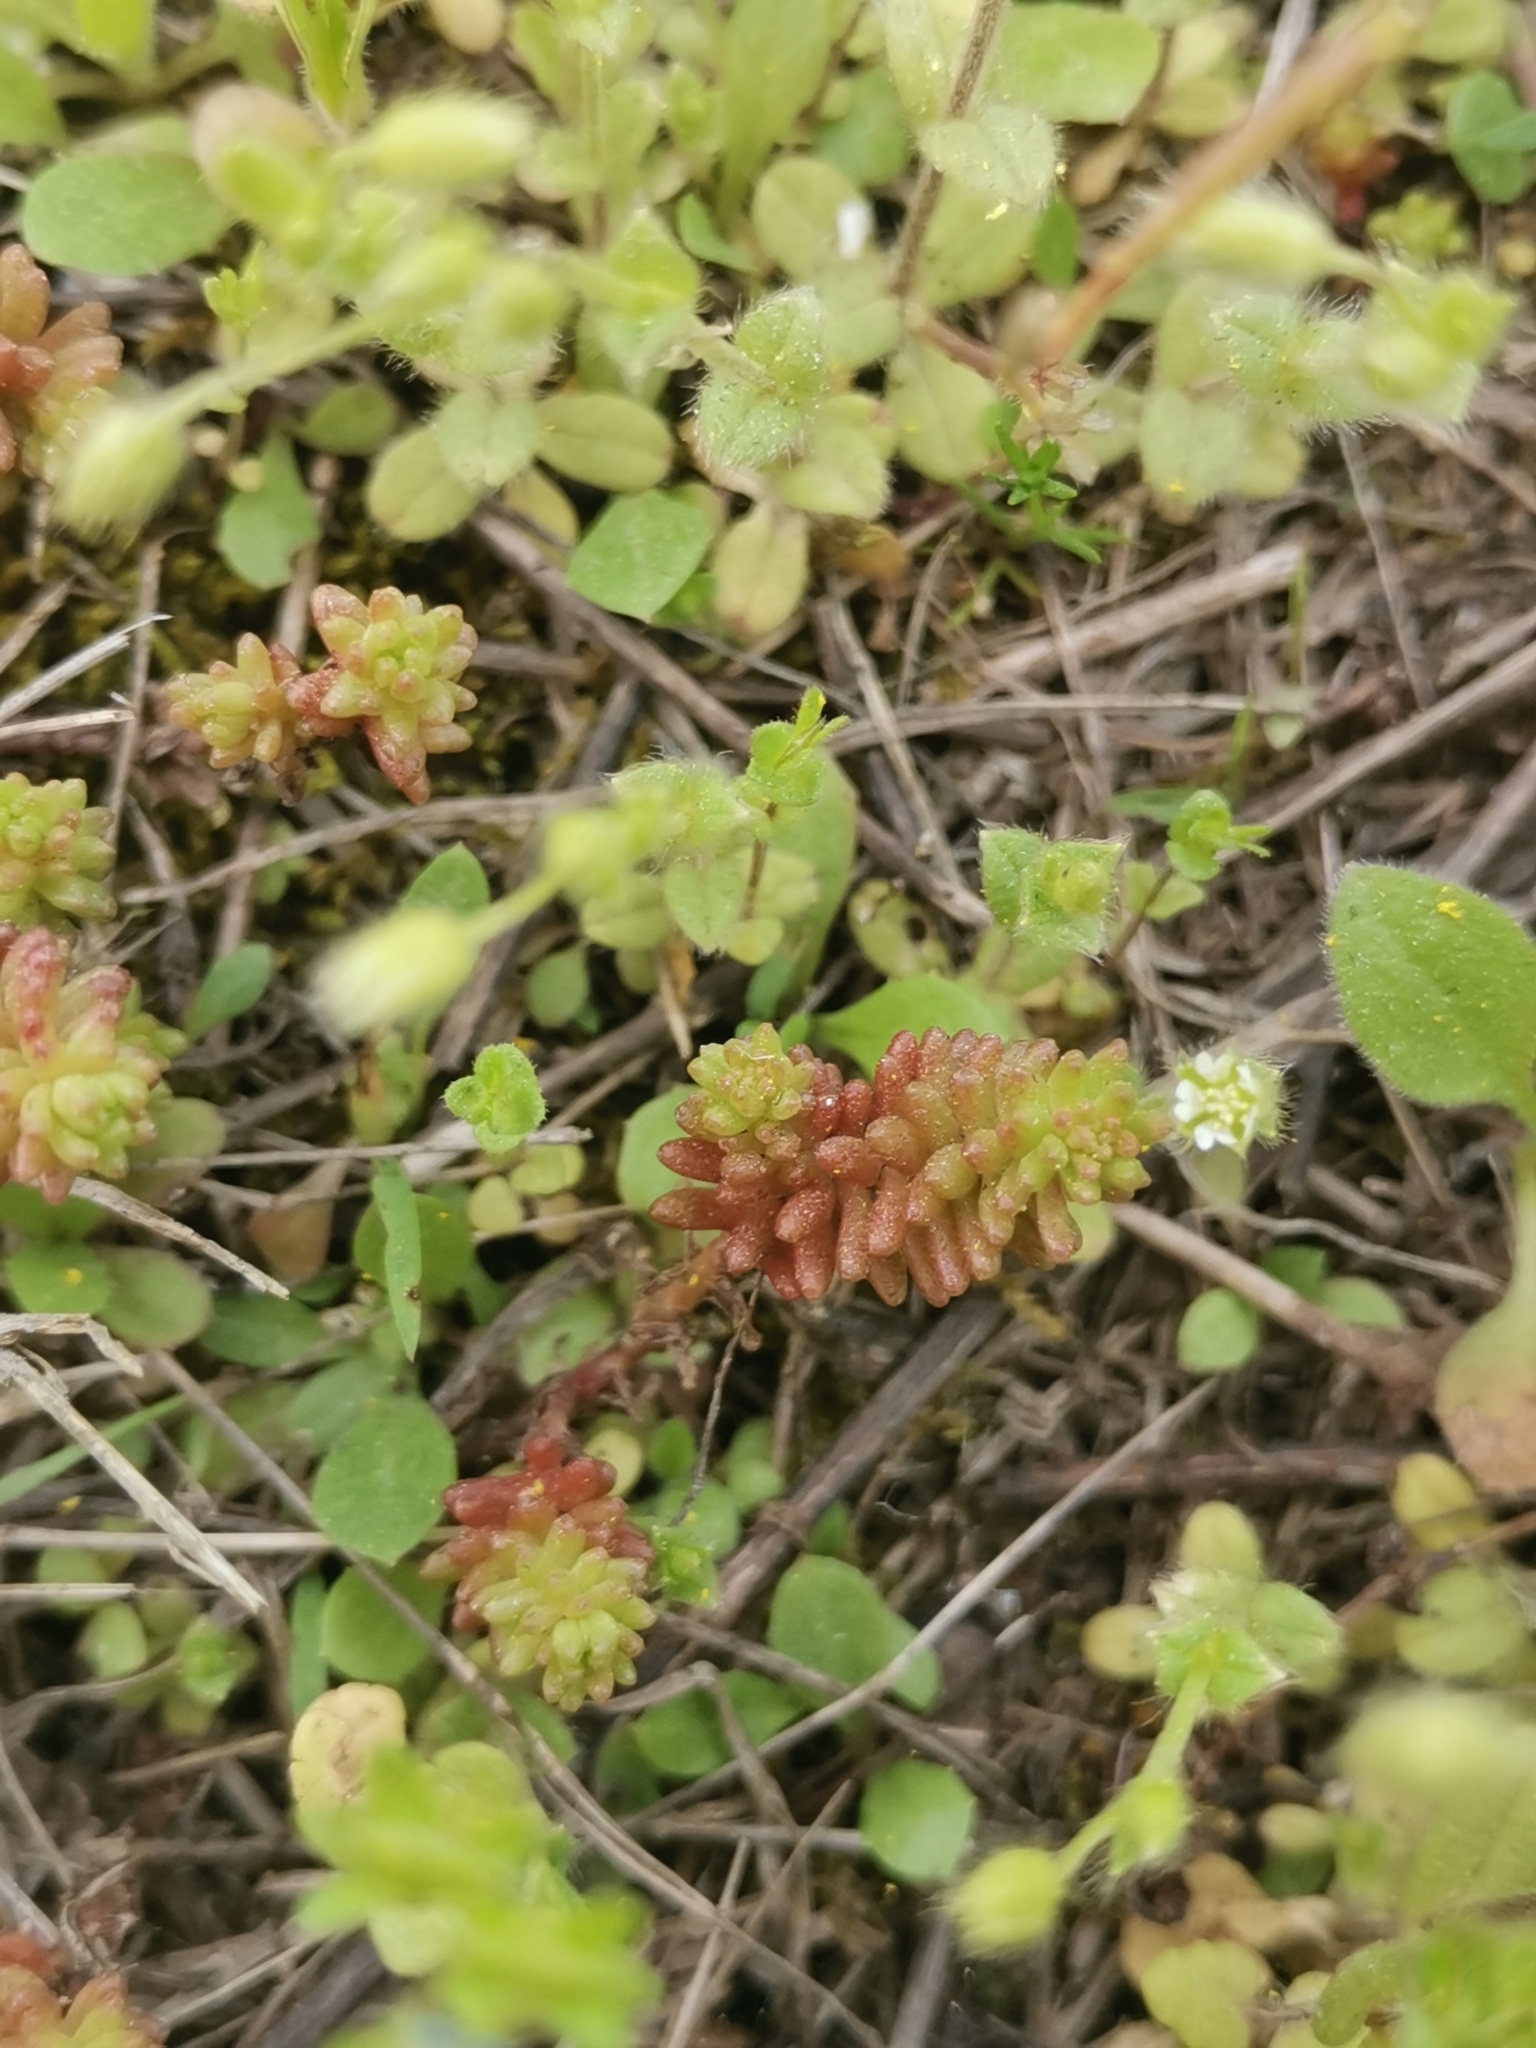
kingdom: Plantae
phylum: Tracheophyta
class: Magnoliopsida
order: Saxifragales
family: Crassulaceae
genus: Sedum
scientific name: Sedum sexangulare
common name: Tasteless stonecrop
